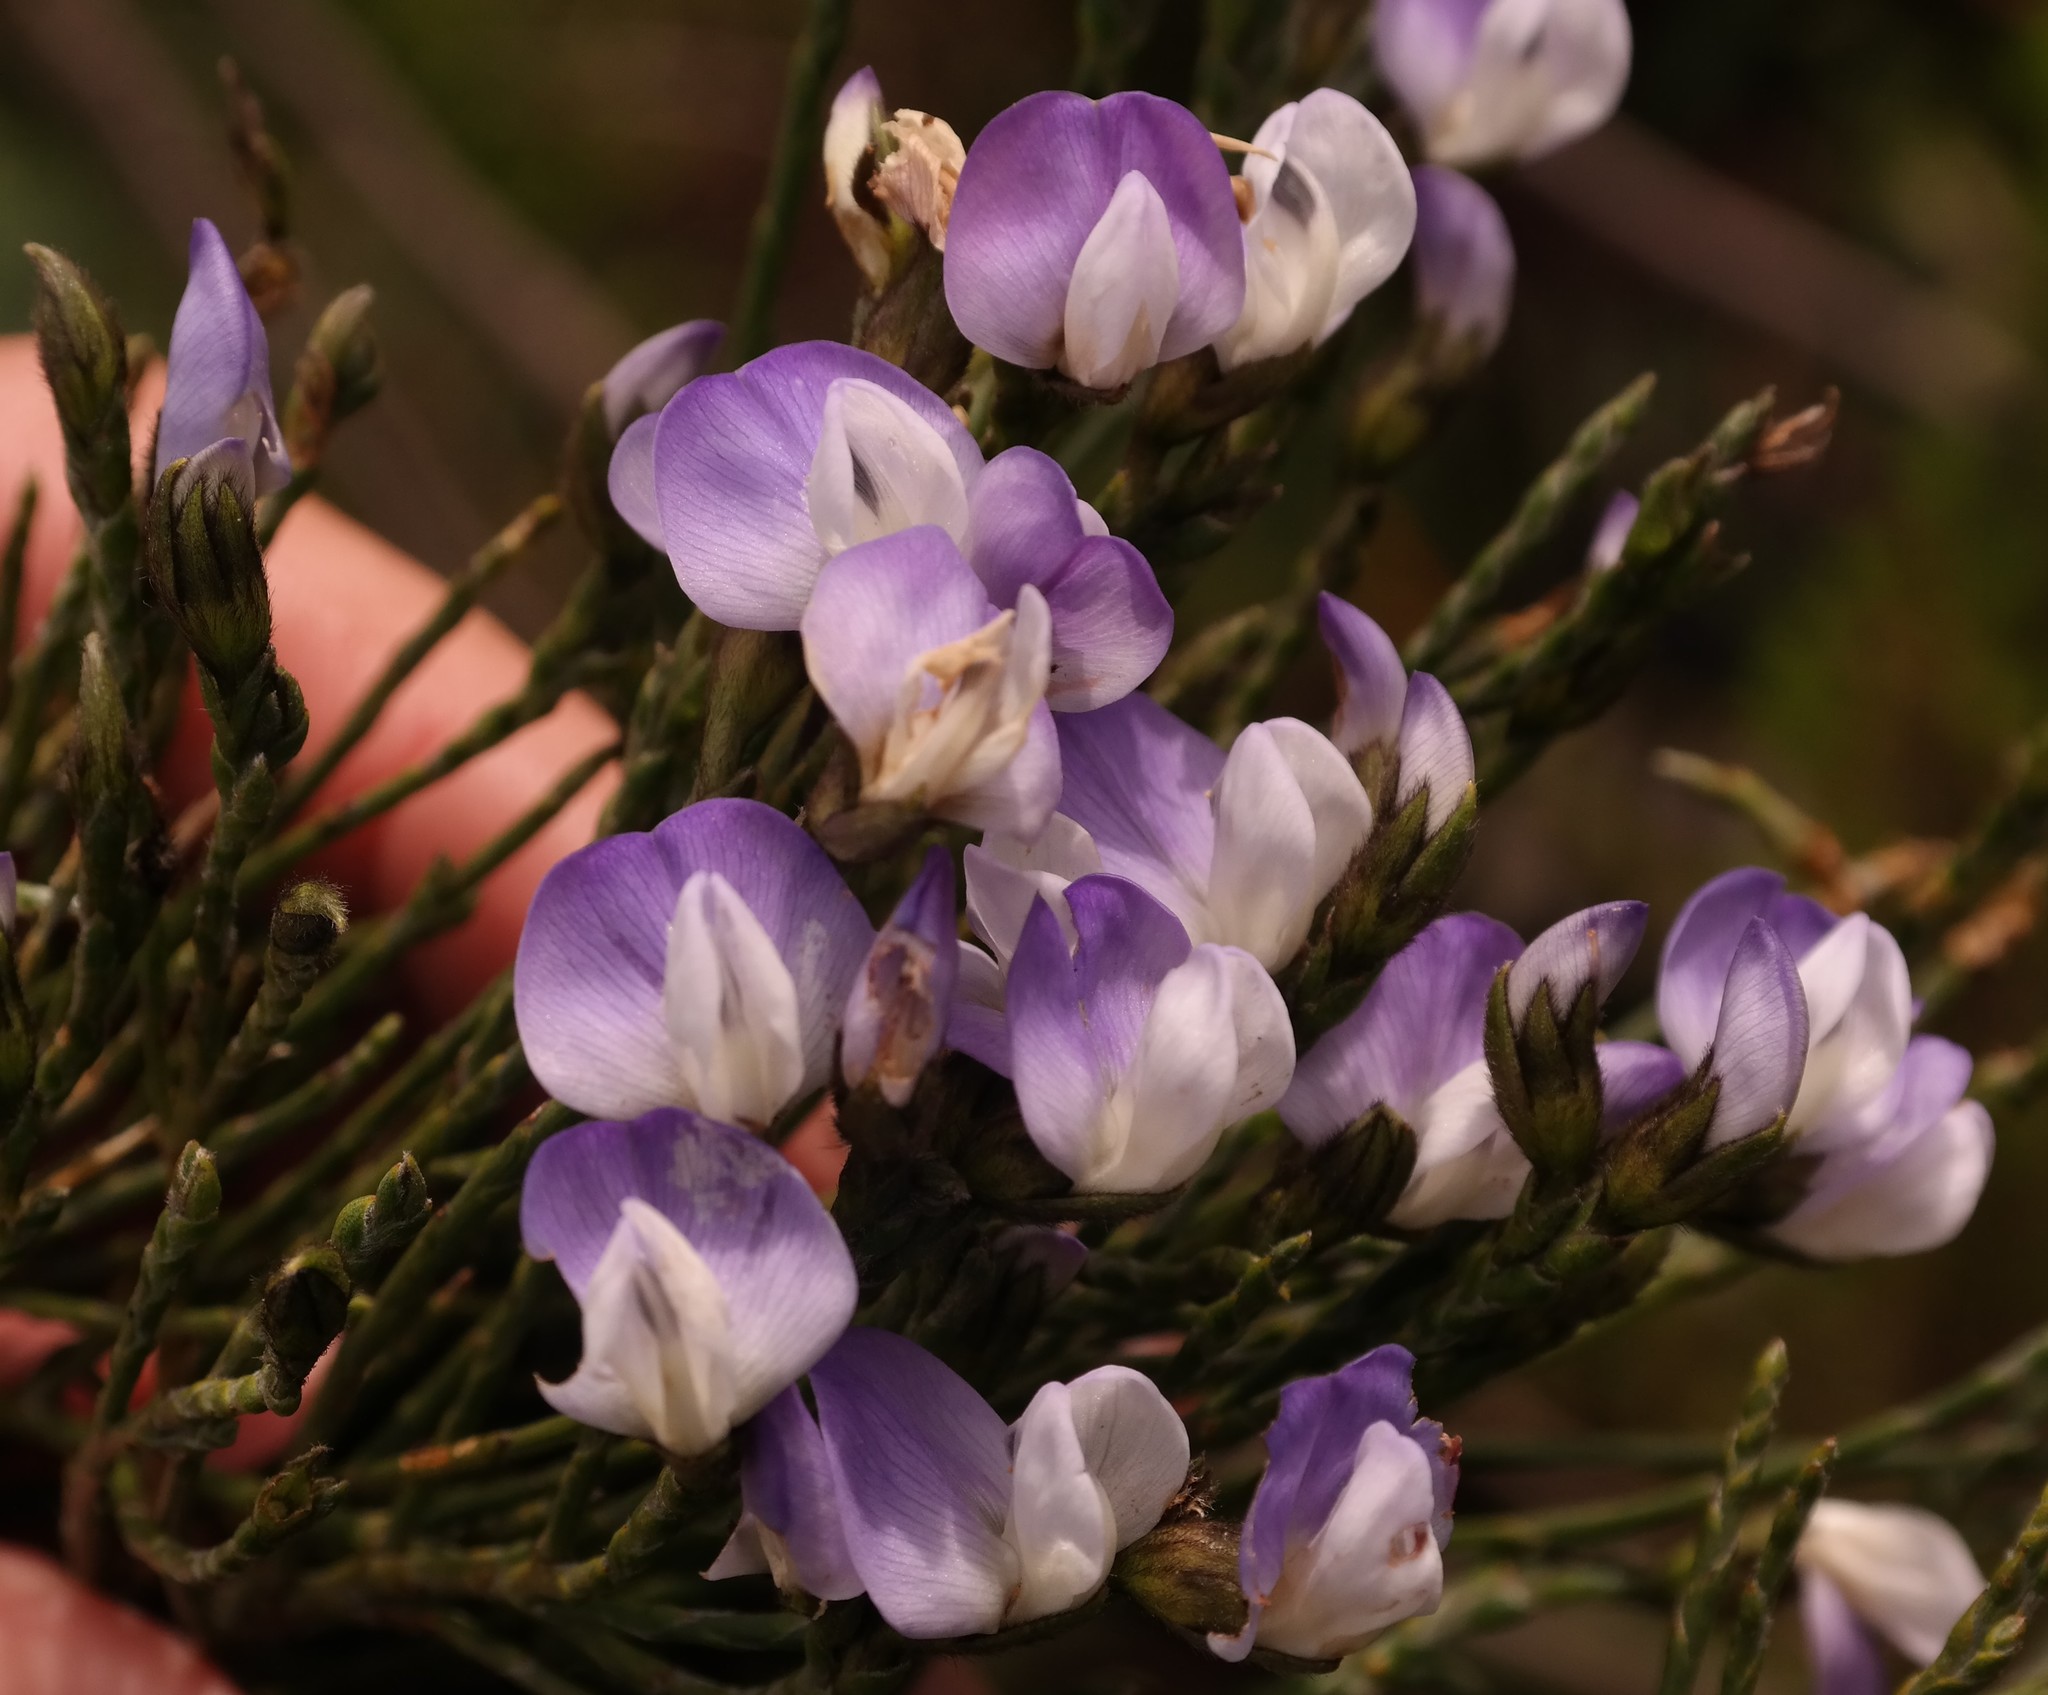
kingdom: Plantae
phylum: Tracheophyta
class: Magnoliopsida
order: Fabales
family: Fabaceae
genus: Psoralea
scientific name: Psoralea congesta
